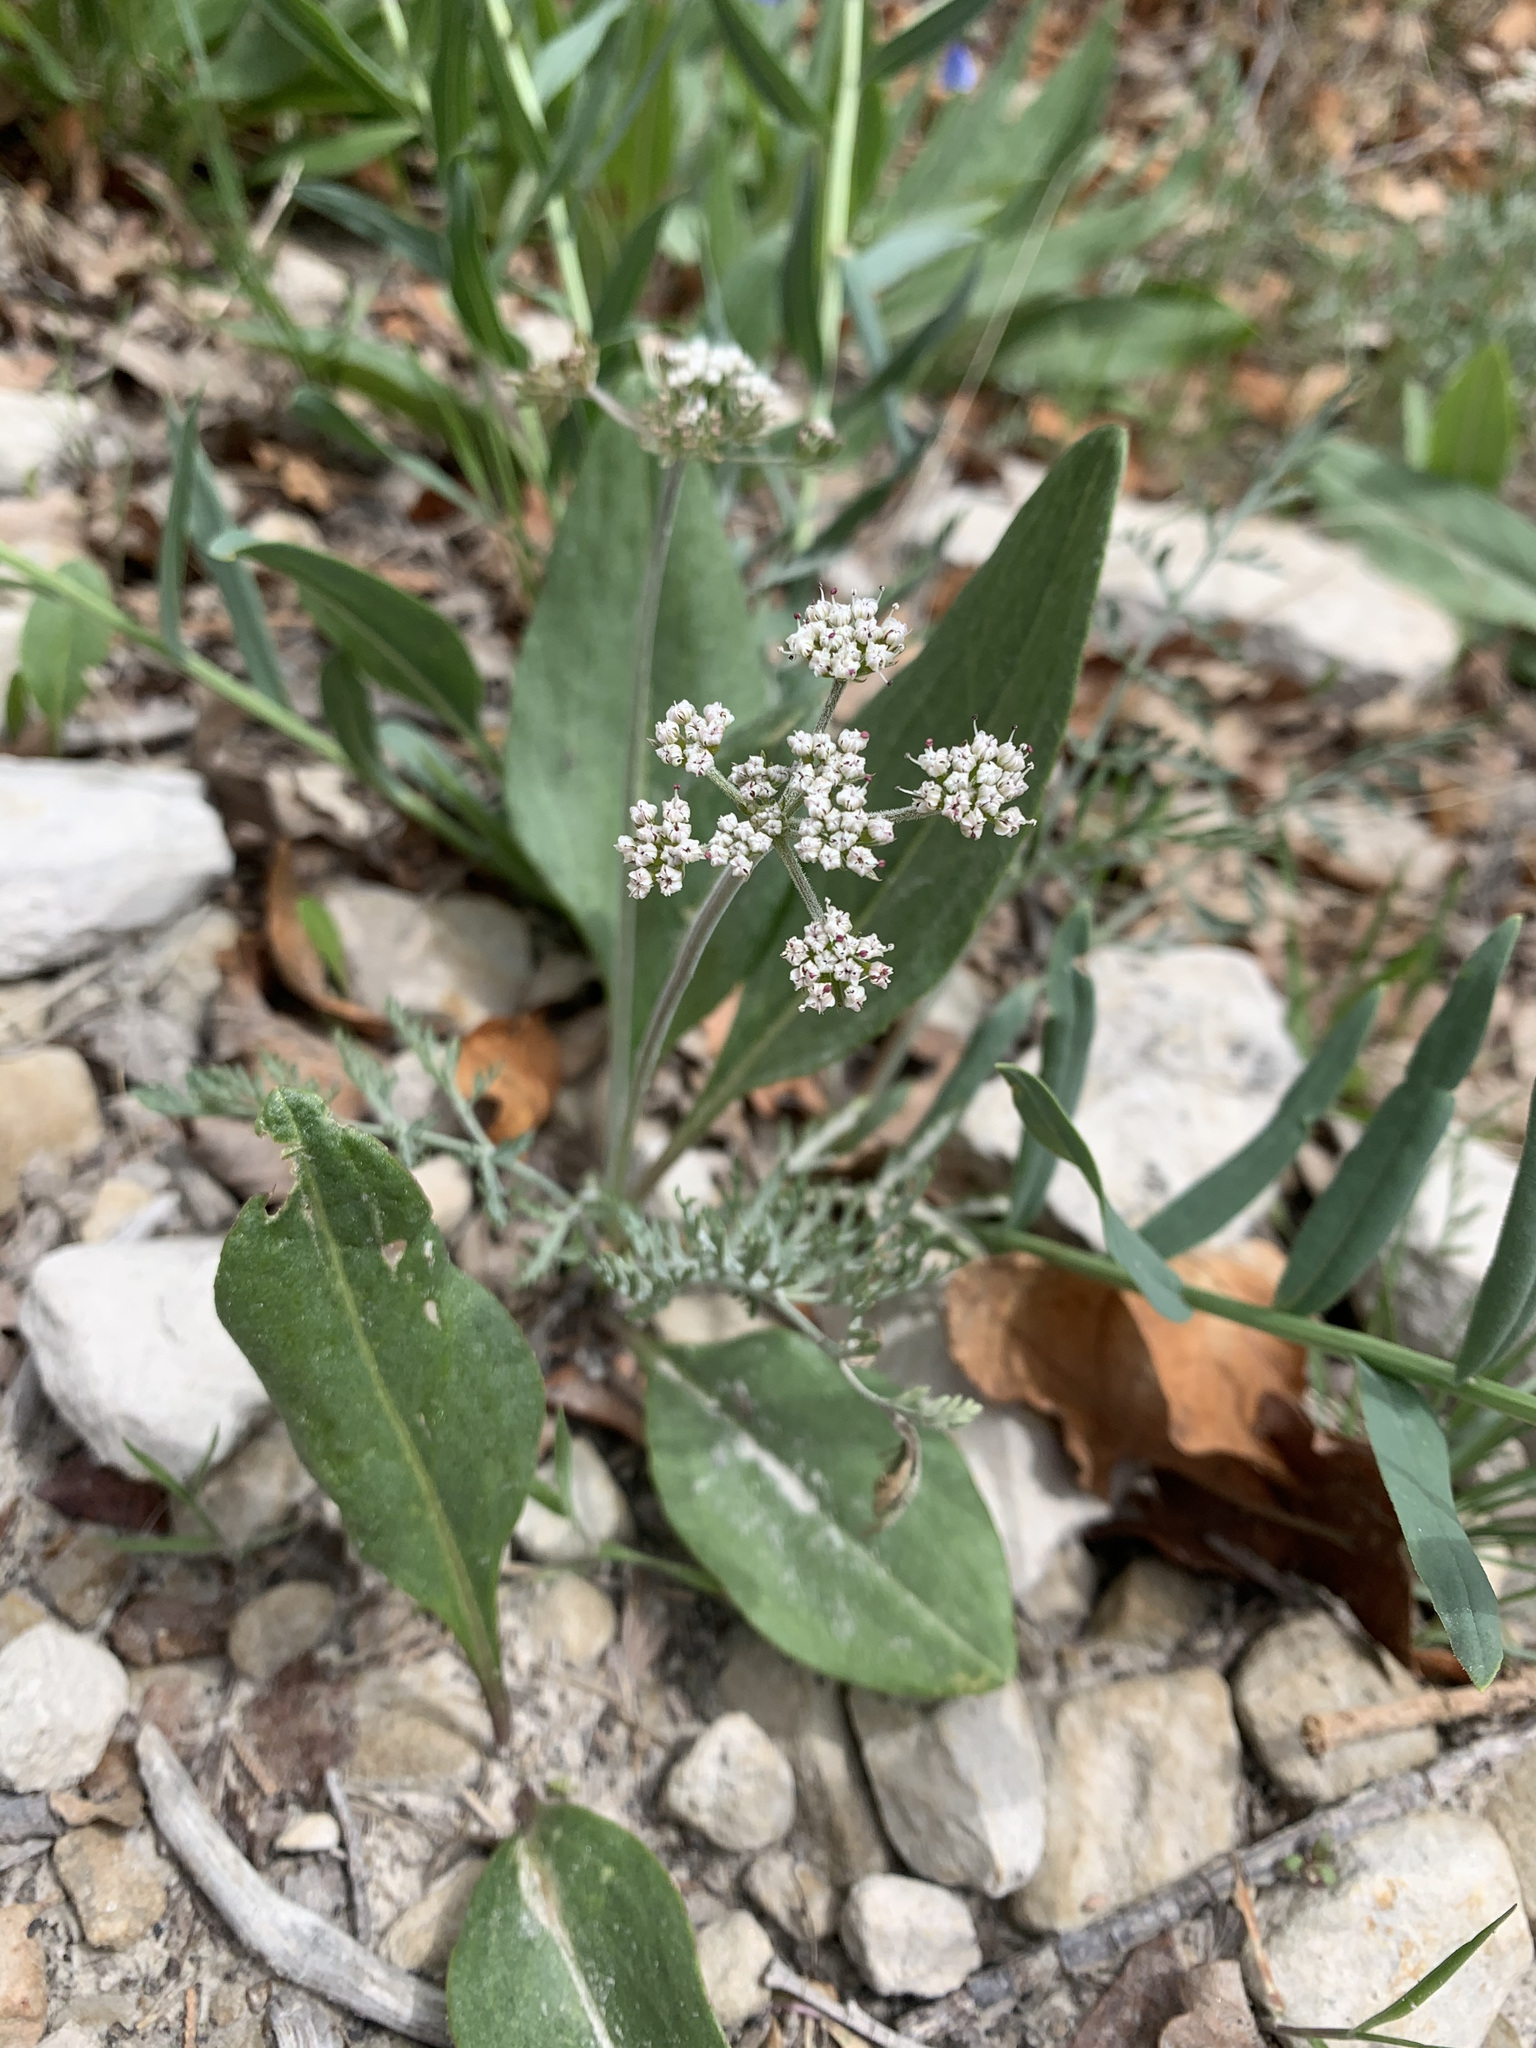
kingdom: Plantae
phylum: Tracheophyta
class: Magnoliopsida
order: Apiales
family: Apiaceae
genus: Lomatium
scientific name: Lomatium orientale
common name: Eastern cous
